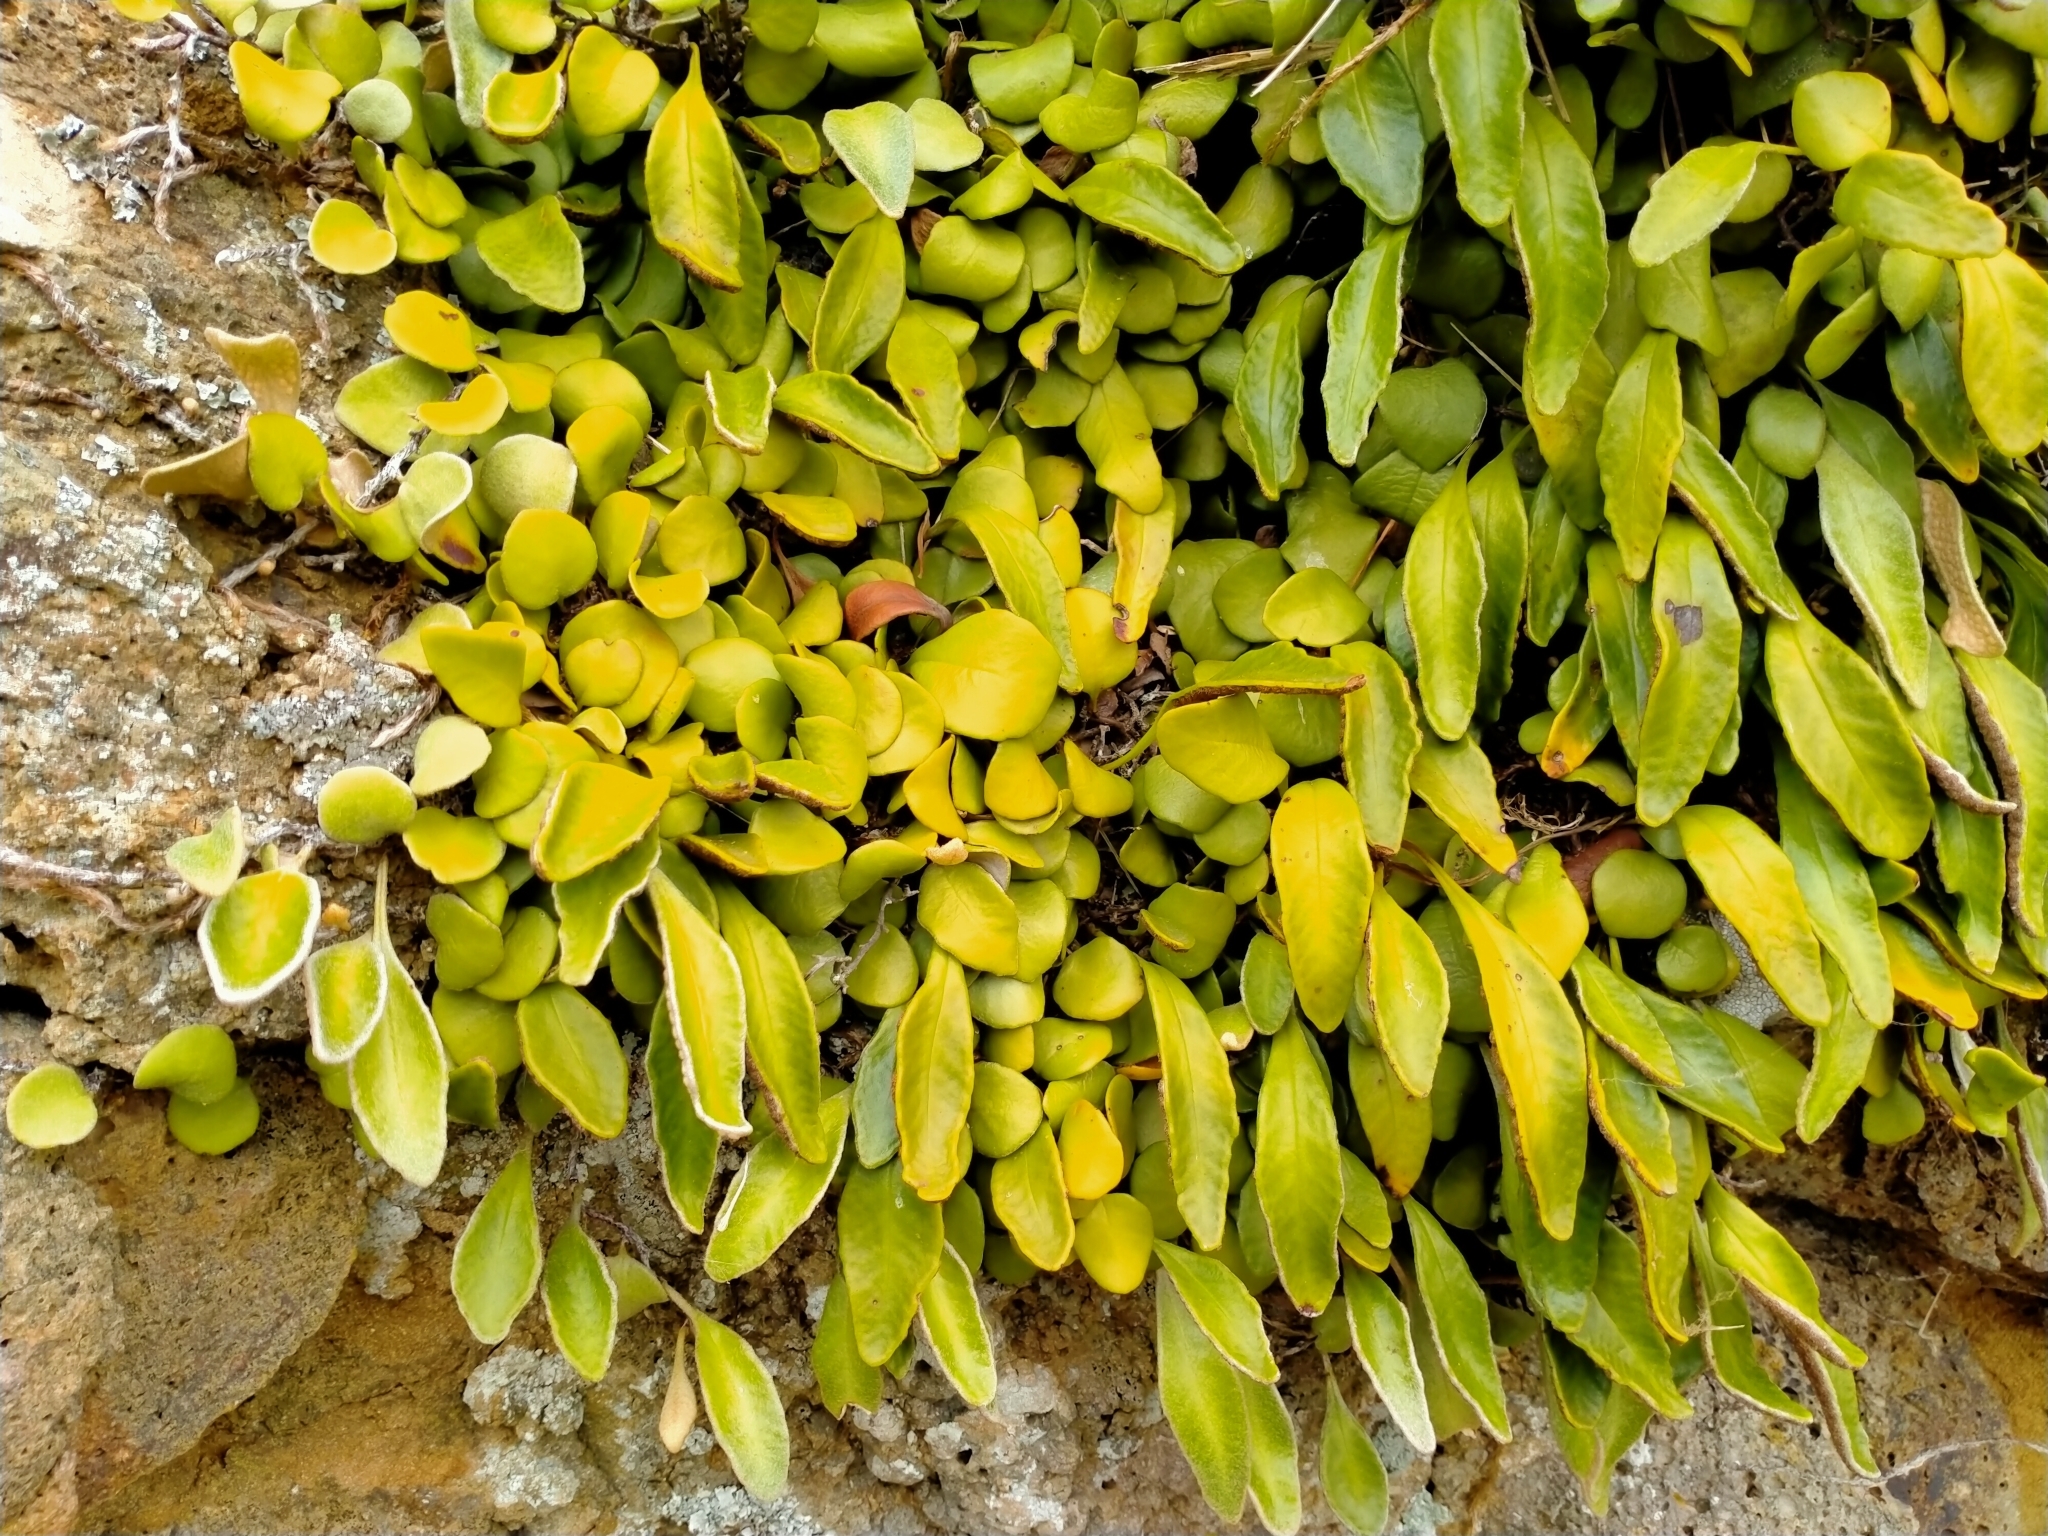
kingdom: Plantae
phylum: Tracheophyta
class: Polypodiopsida
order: Polypodiales
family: Polypodiaceae
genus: Pyrrosia
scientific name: Pyrrosia eleagnifolia
